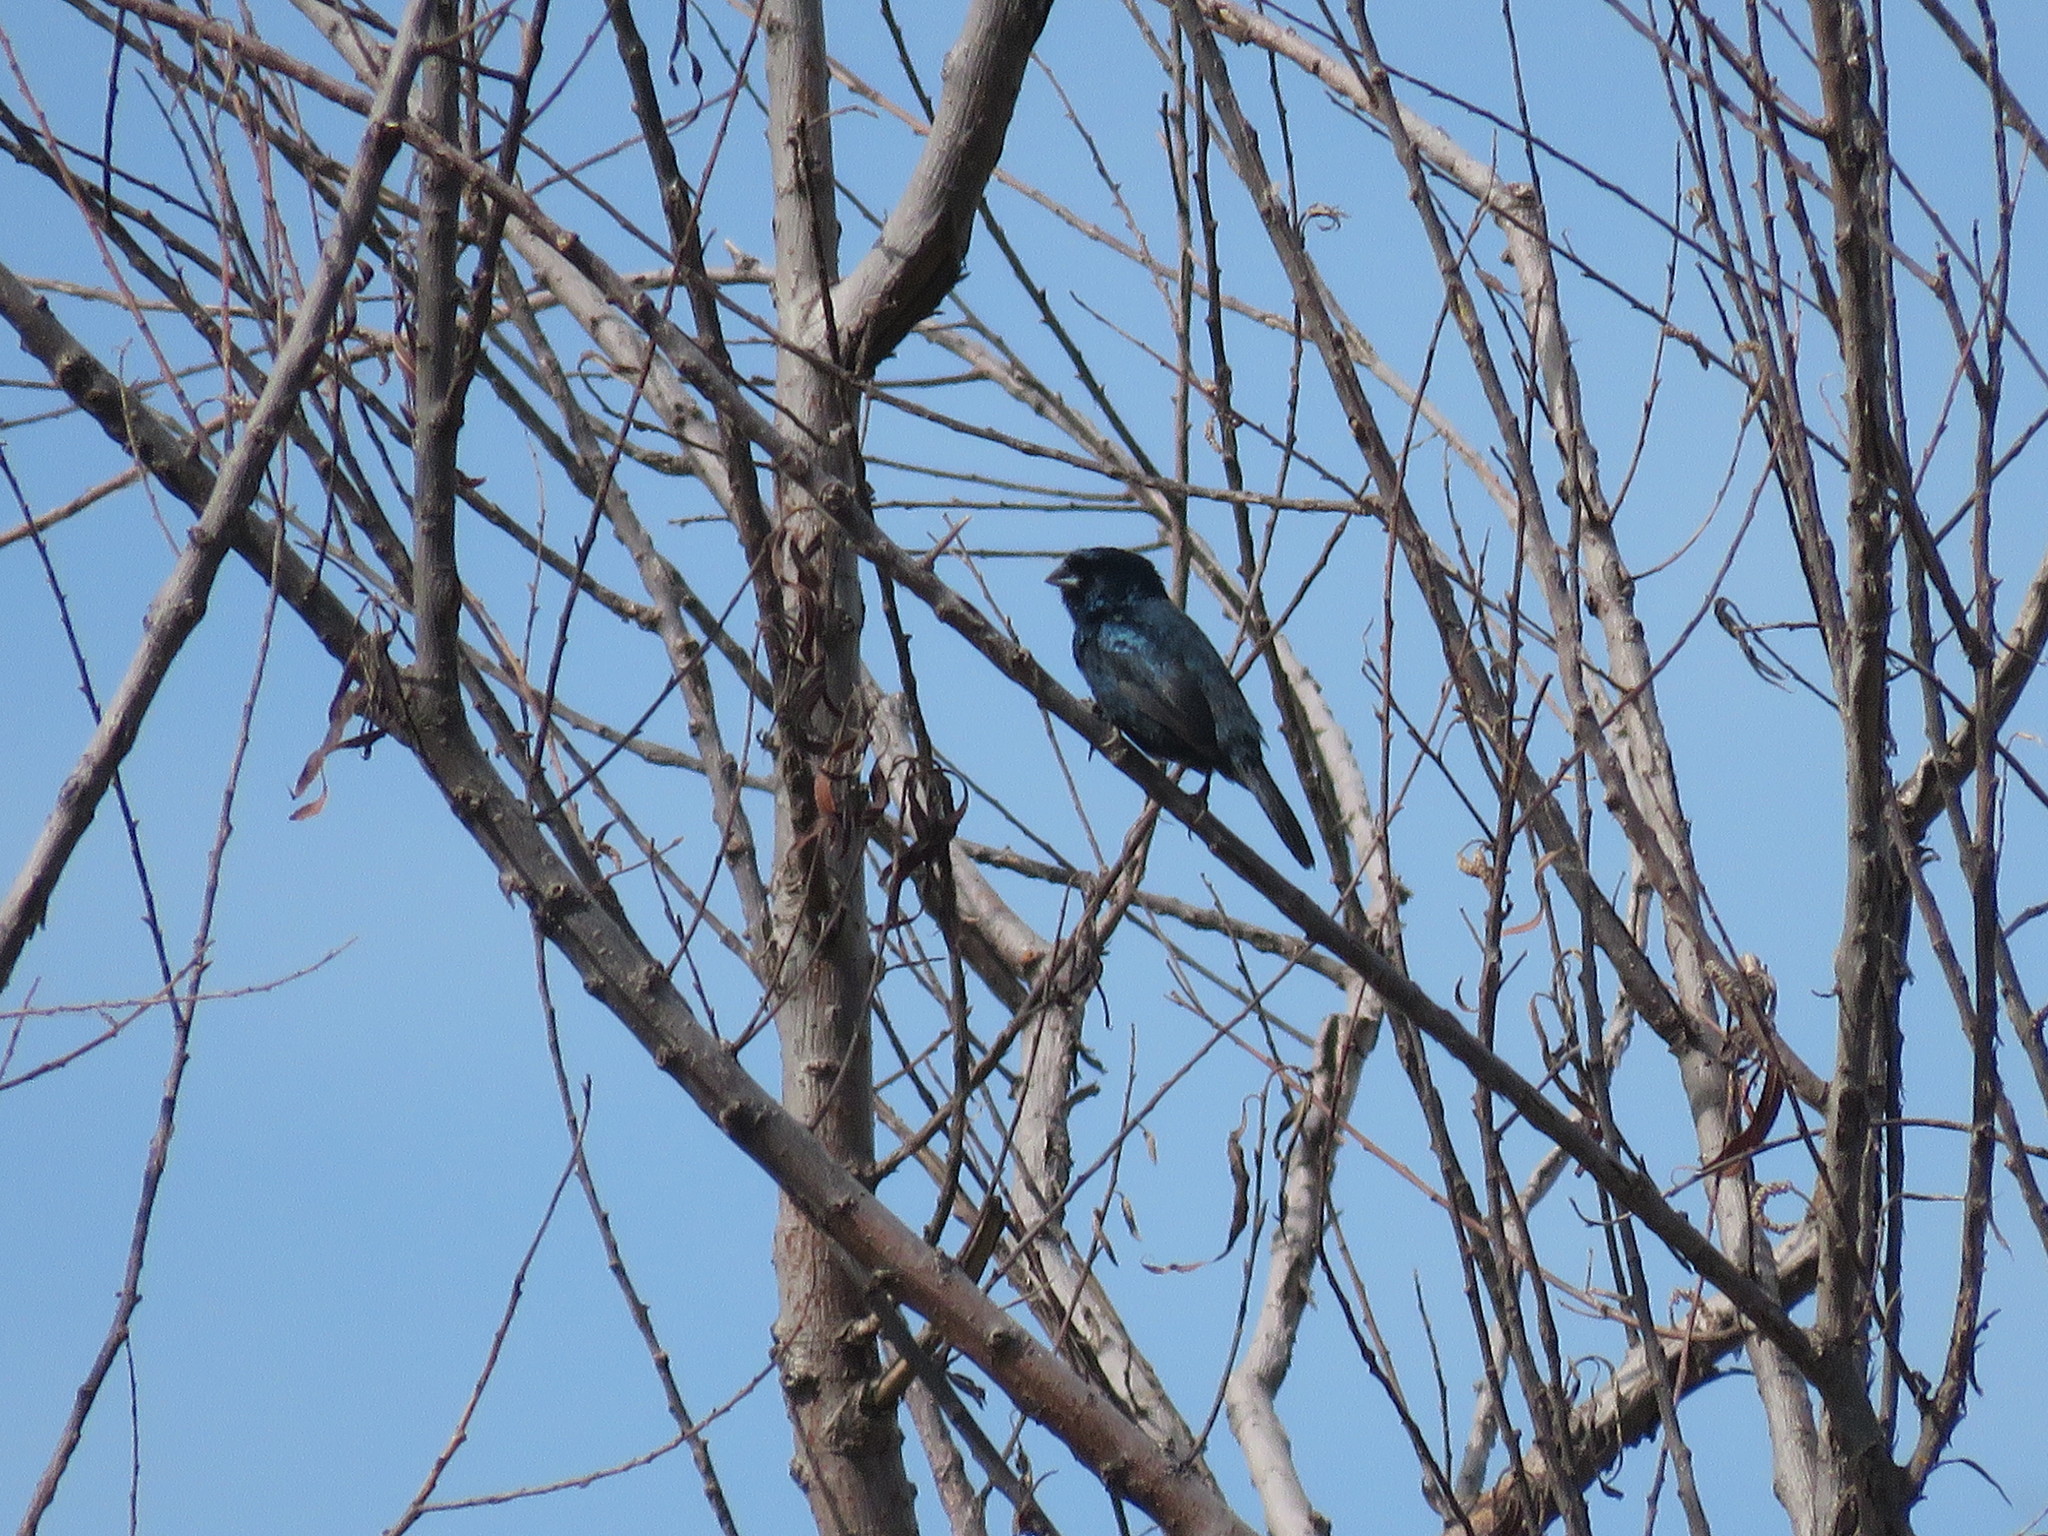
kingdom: Animalia
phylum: Chordata
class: Aves
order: Passeriformes
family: Thraupidae
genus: Volatinia
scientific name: Volatinia jacarina
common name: Blue-black grassquit
